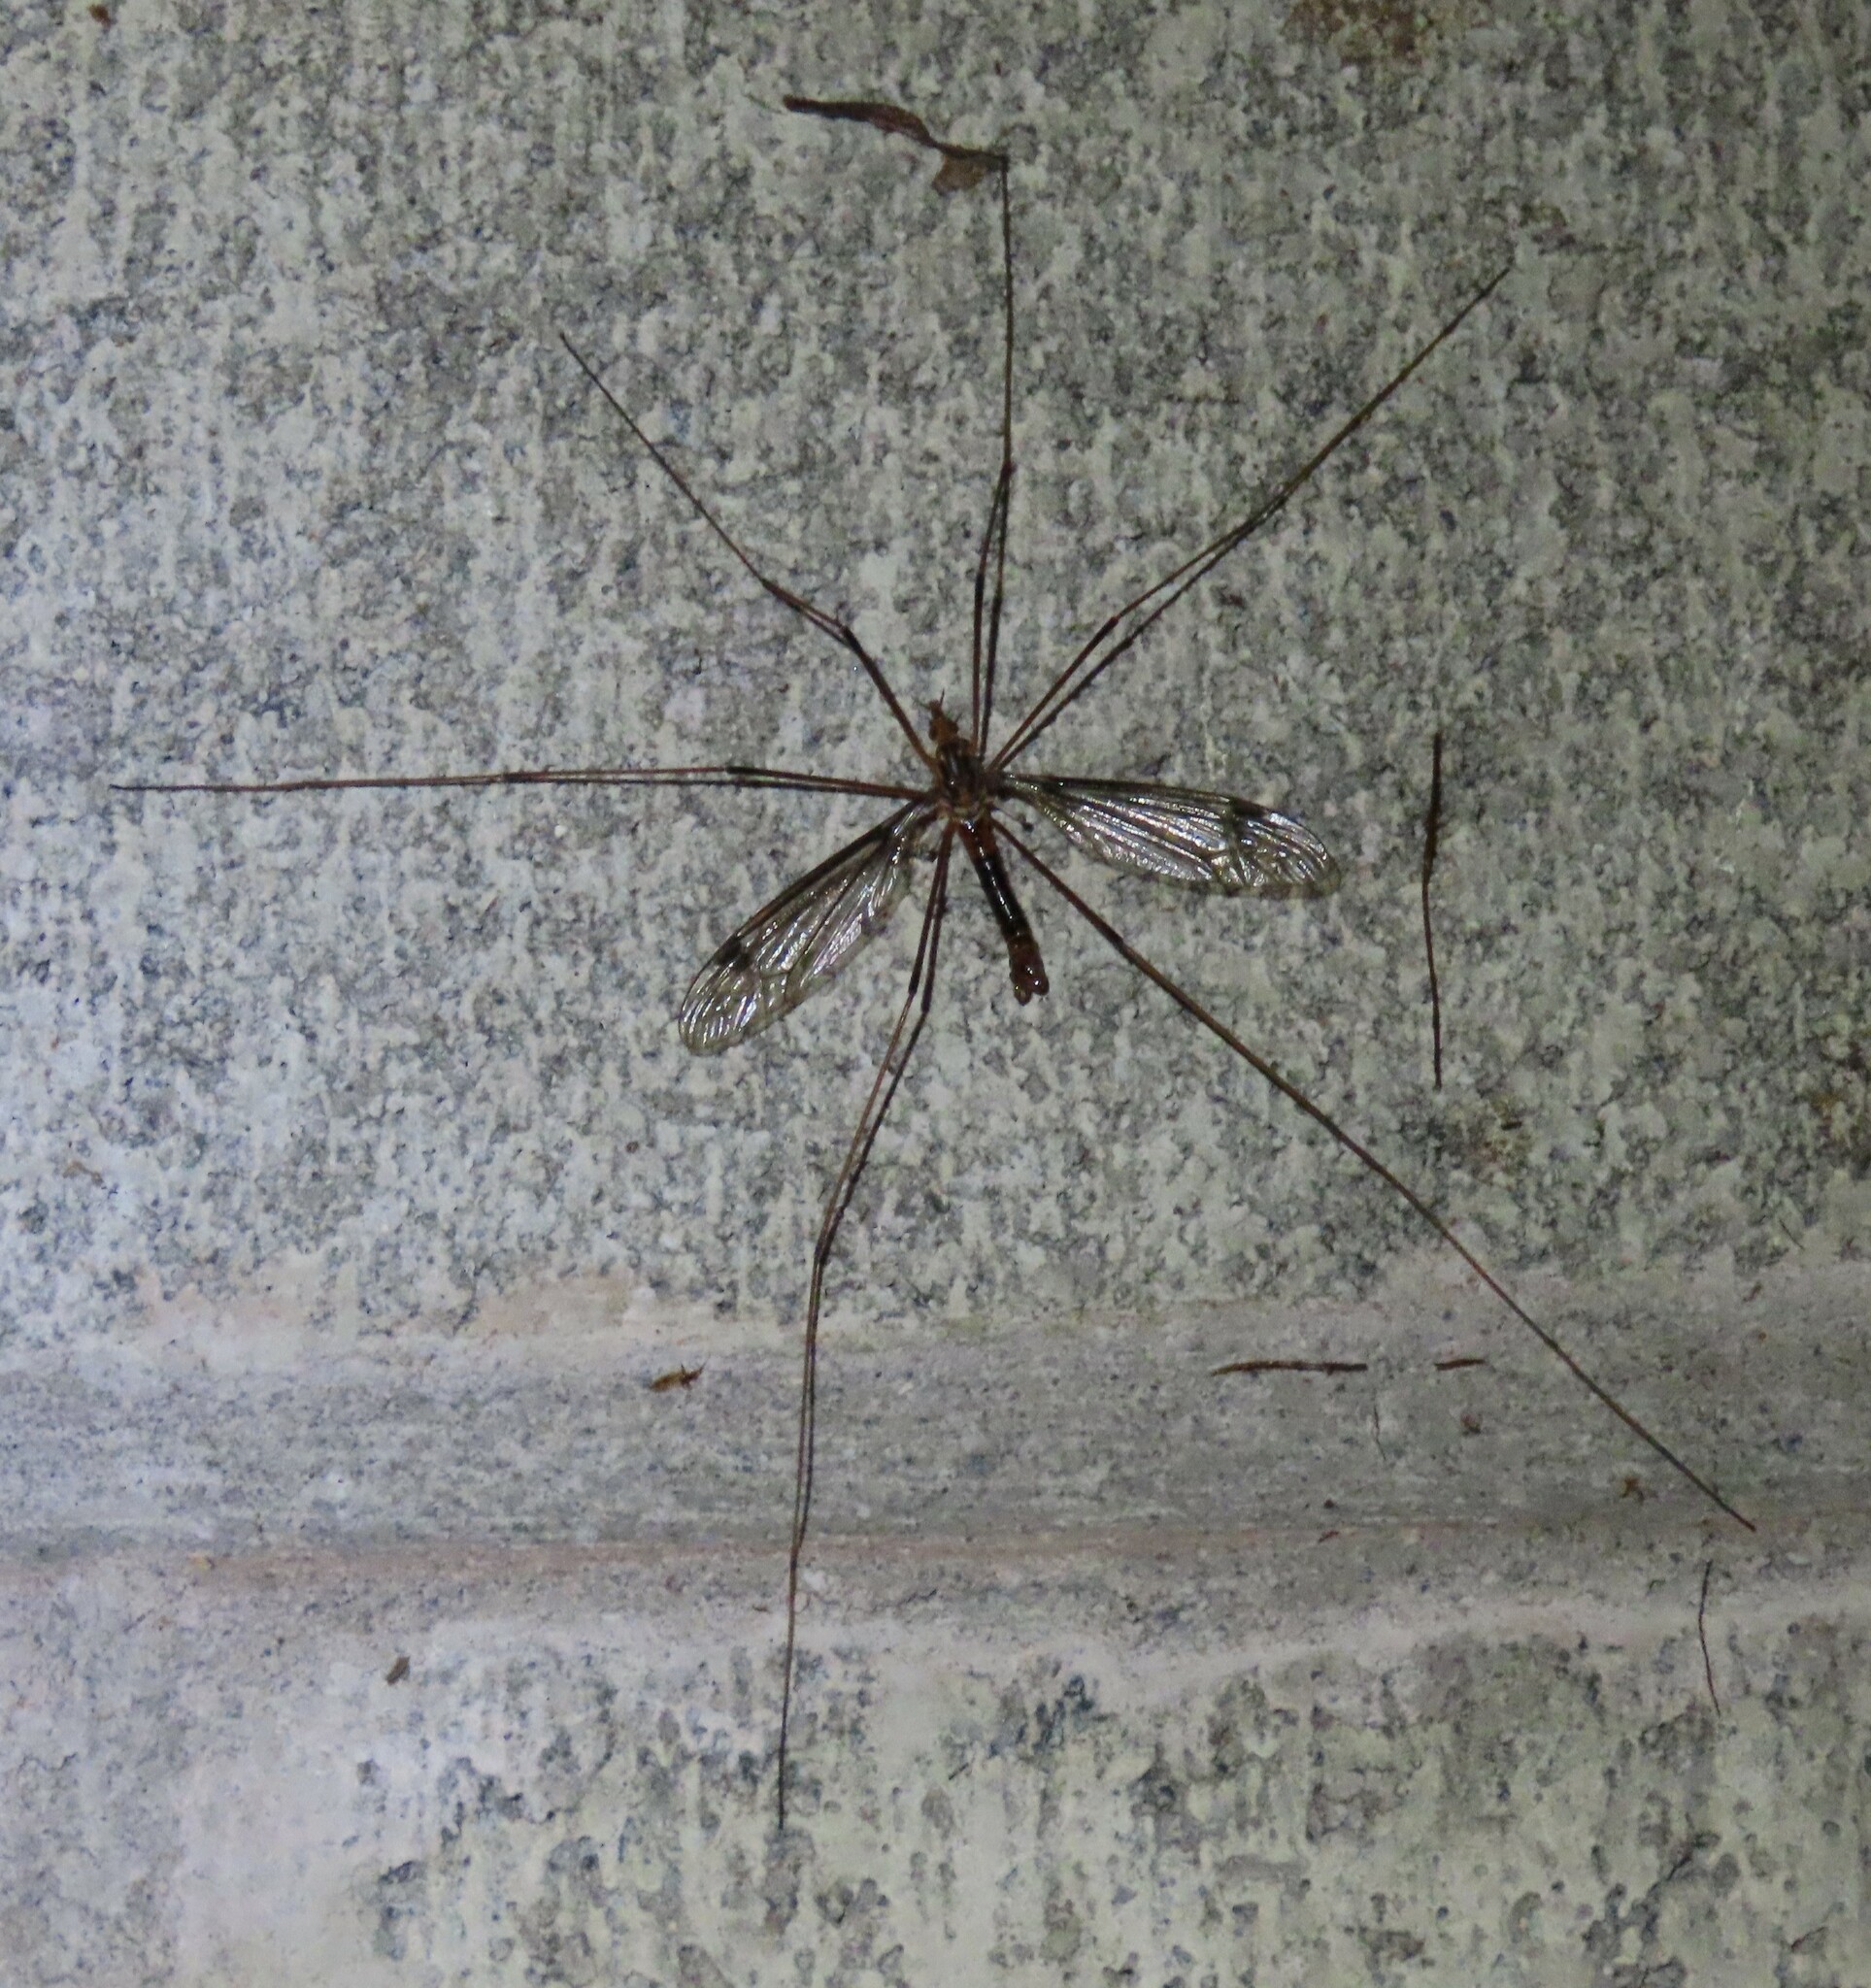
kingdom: Animalia
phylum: Arthropoda
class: Insecta
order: Diptera
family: Tipulidae
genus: Leptotarsus
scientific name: Leptotarsus heterogamus
